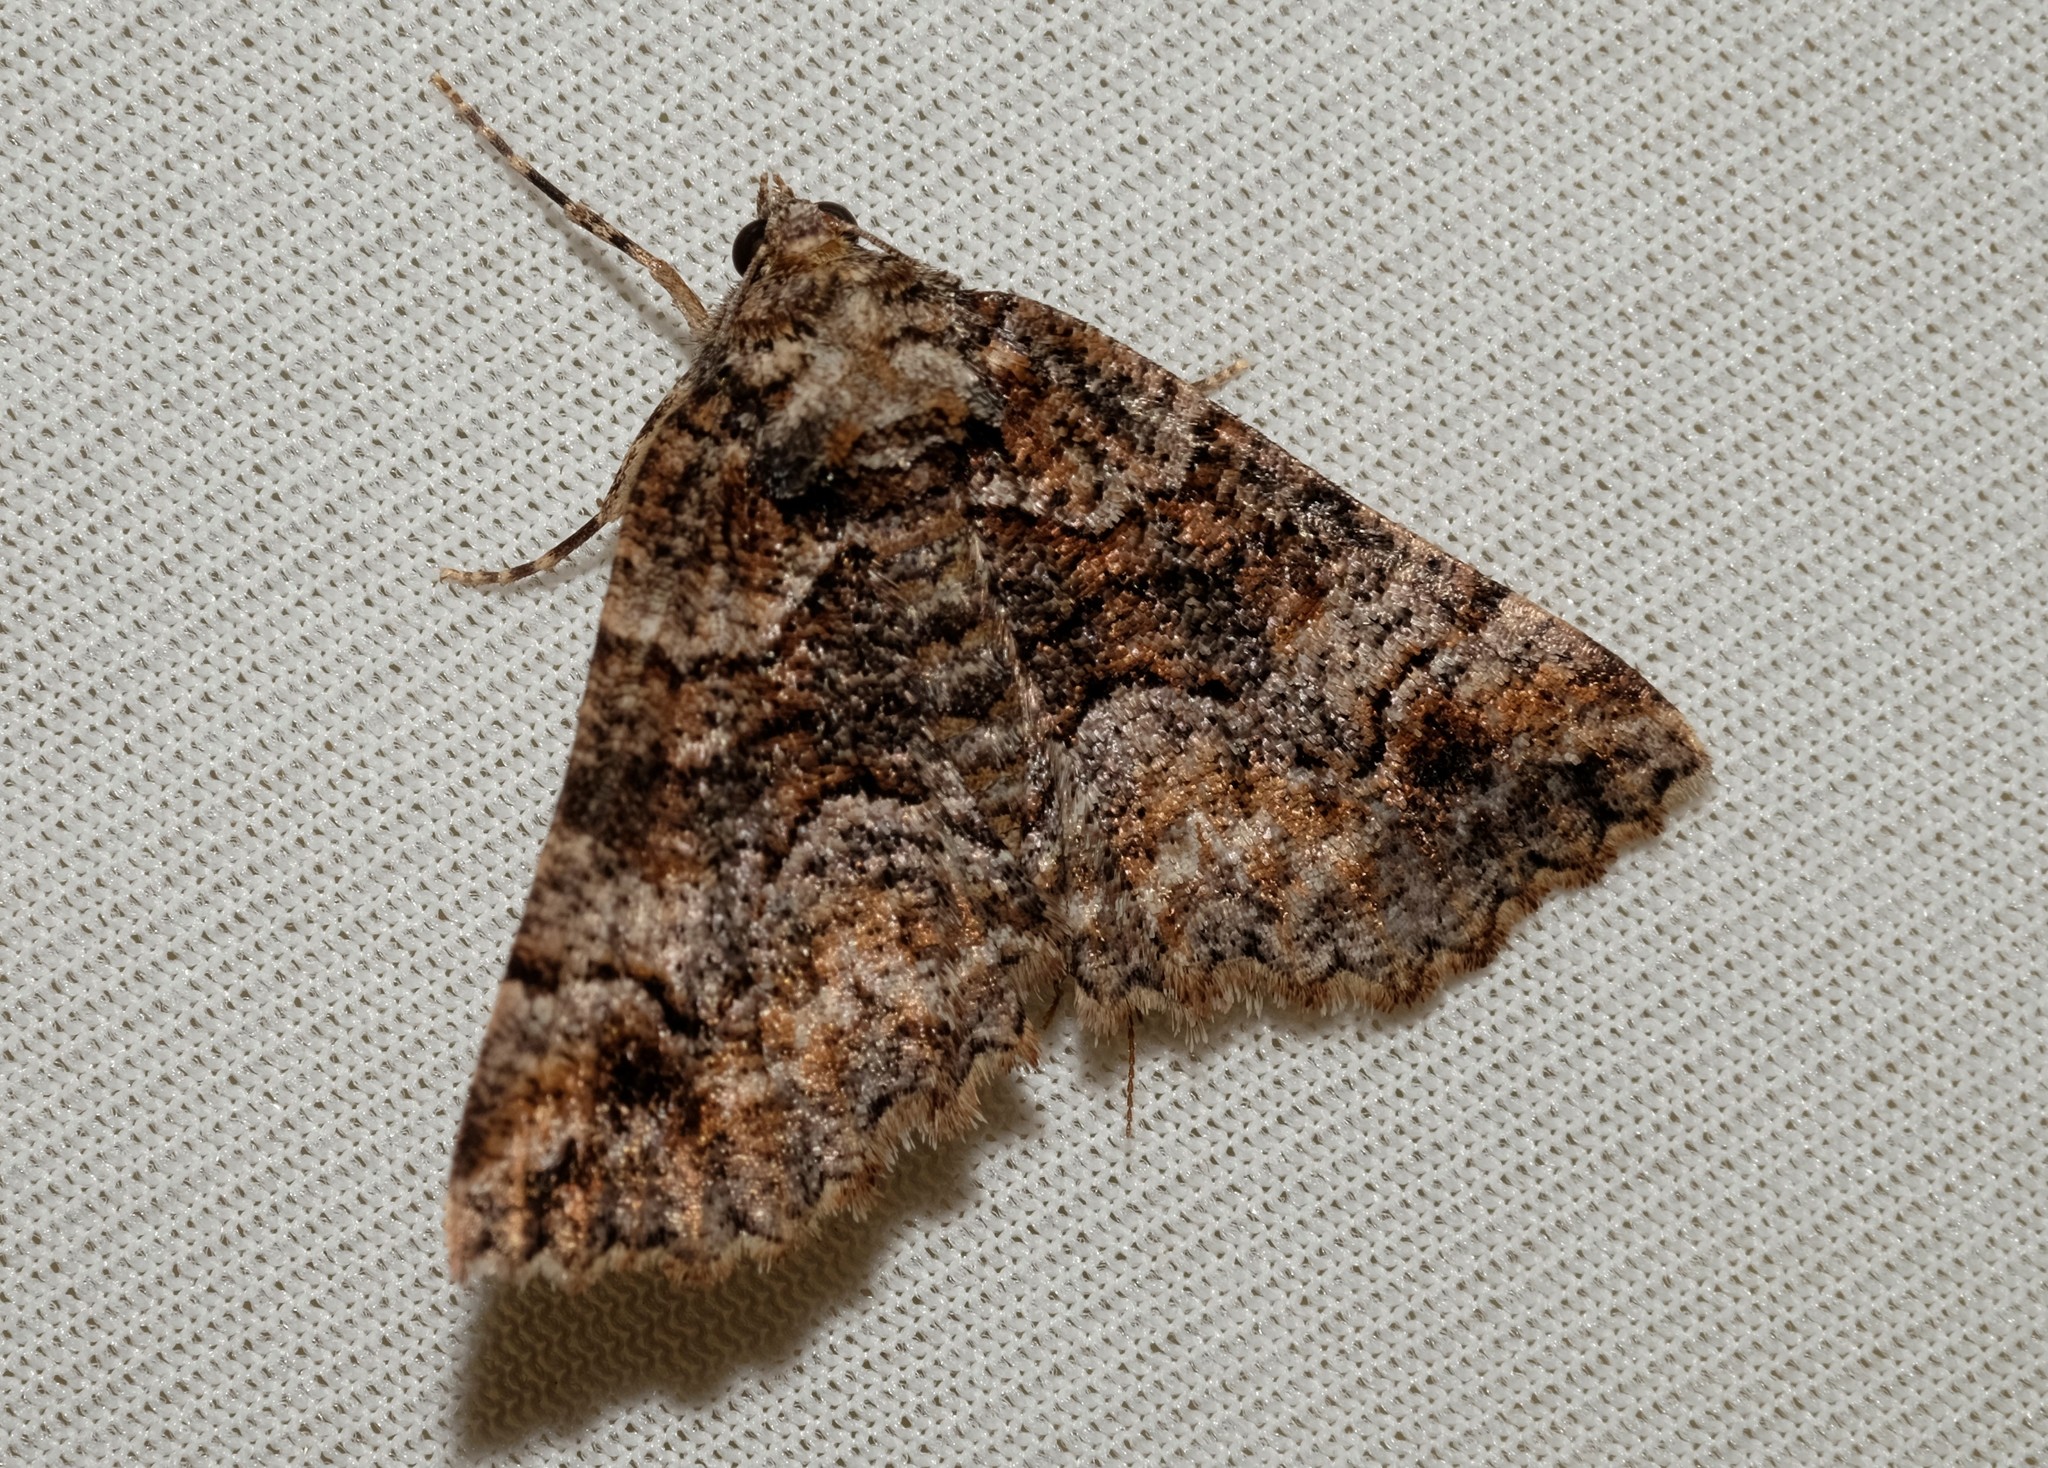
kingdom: Animalia
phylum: Arthropoda
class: Insecta
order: Lepidoptera
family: Geometridae
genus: Gastrina
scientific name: Gastrina cristaria
